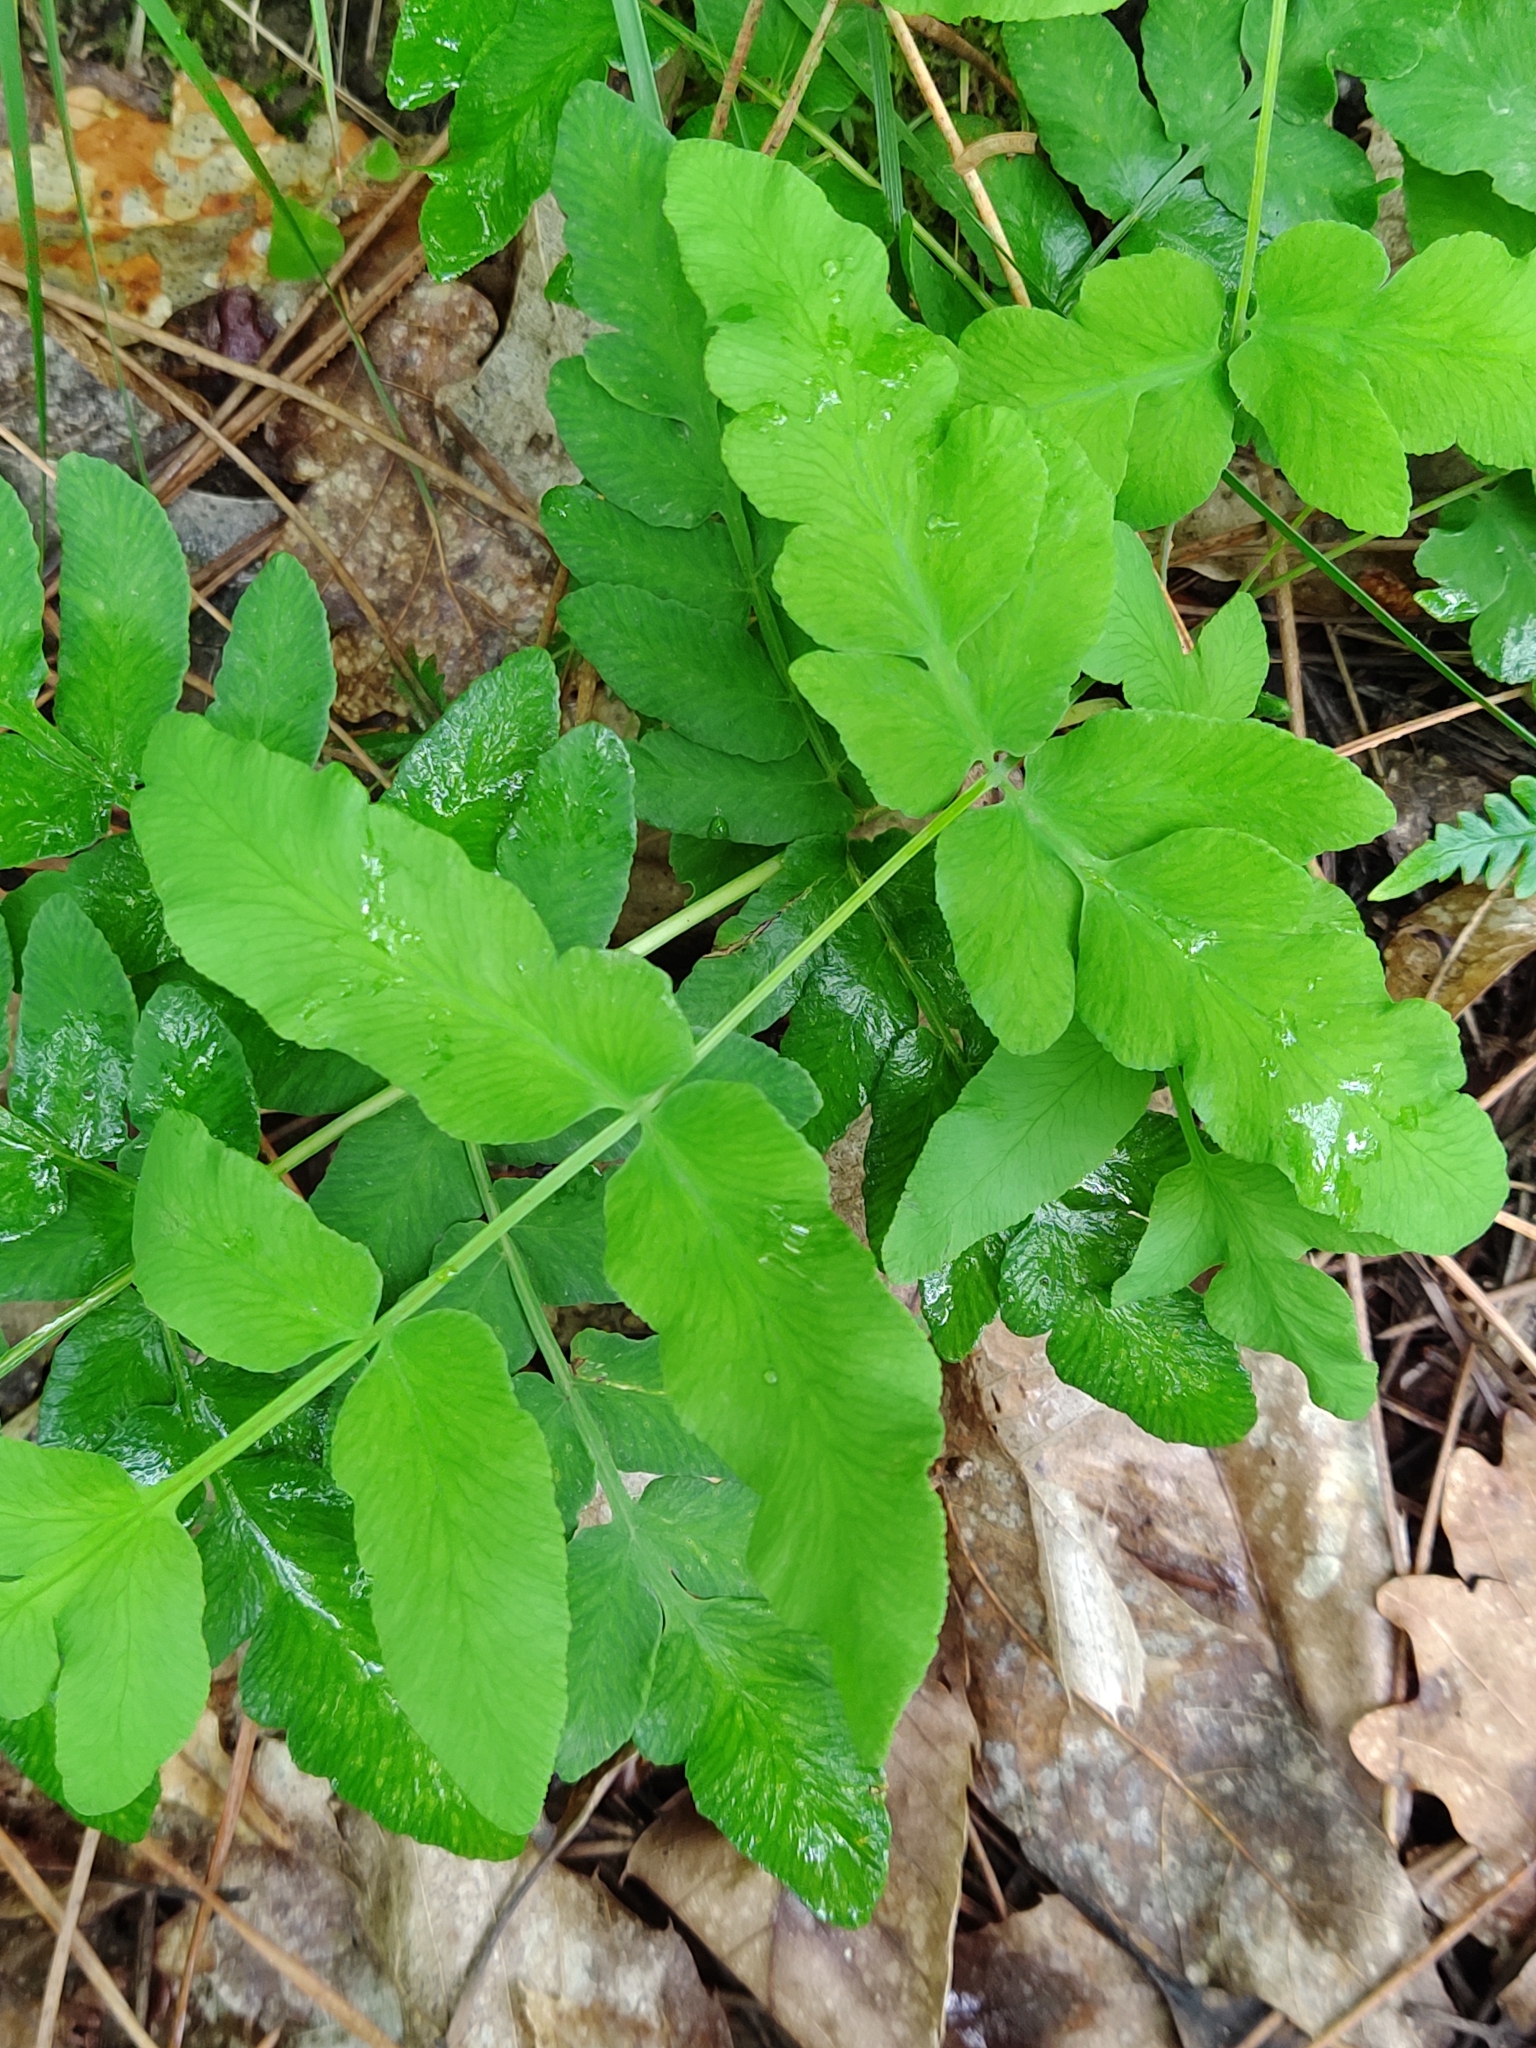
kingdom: Plantae
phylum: Tracheophyta
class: Polypodiopsida
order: Osmundales
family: Osmundaceae
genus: Osmunda
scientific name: Osmunda regalis
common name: Royal fern
